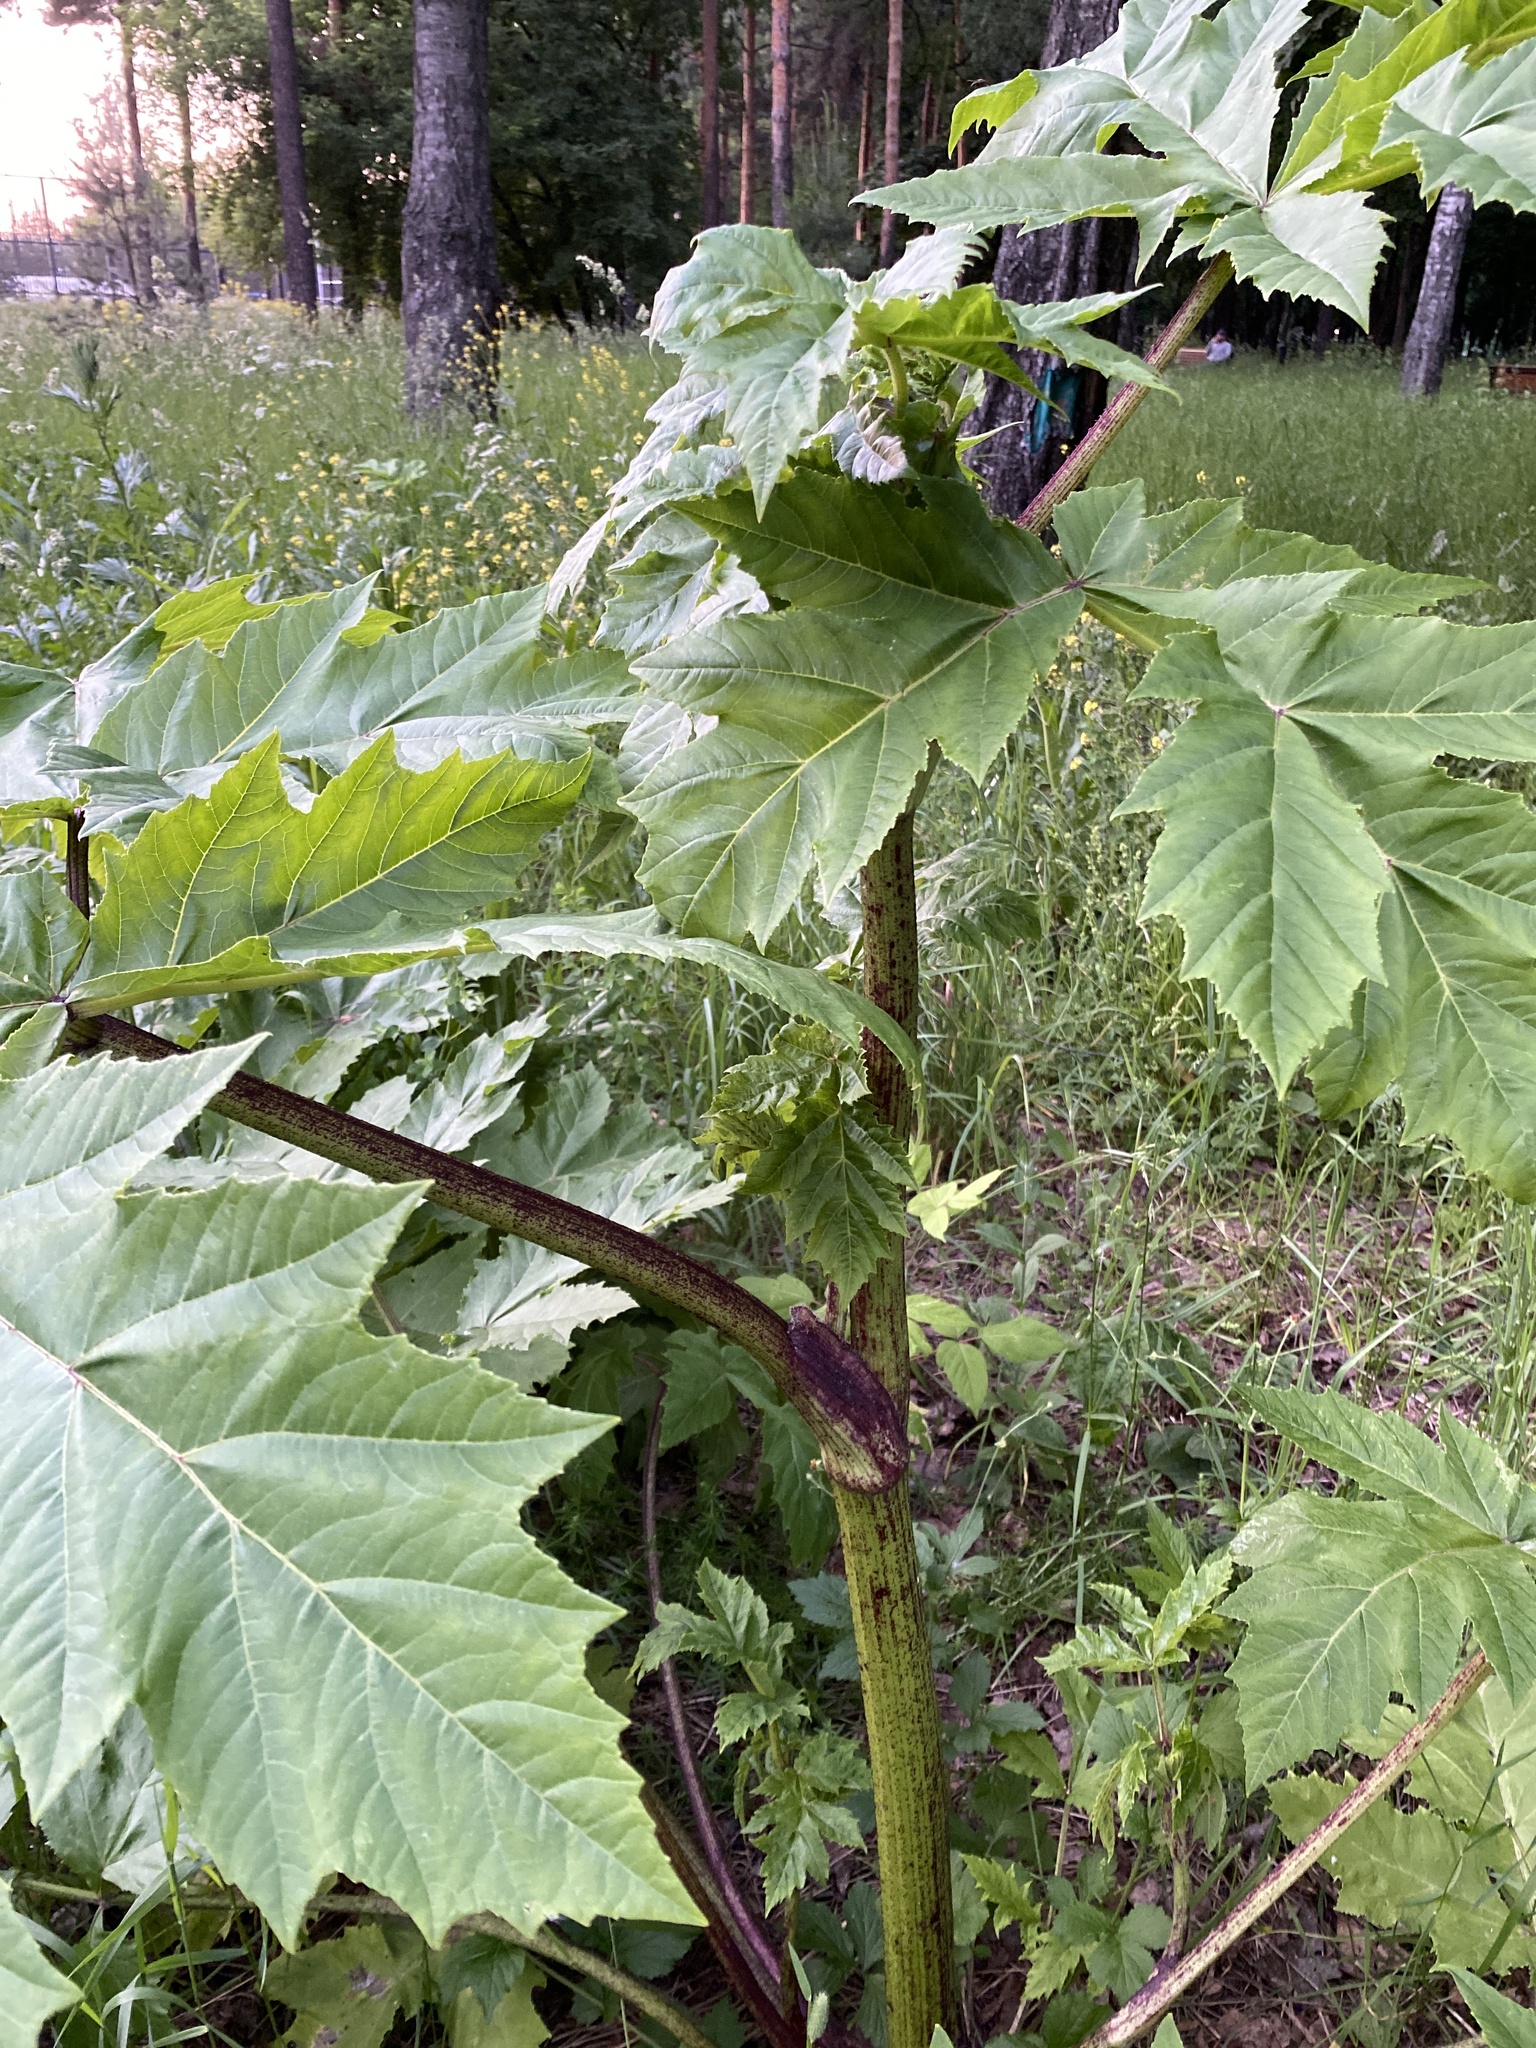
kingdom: Plantae
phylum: Tracheophyta
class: Magnoliopsida
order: Apiales
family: Apiaceae
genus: Heracleum
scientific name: Heracleum sosnowskyi
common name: Sosnowsky's hogweed
